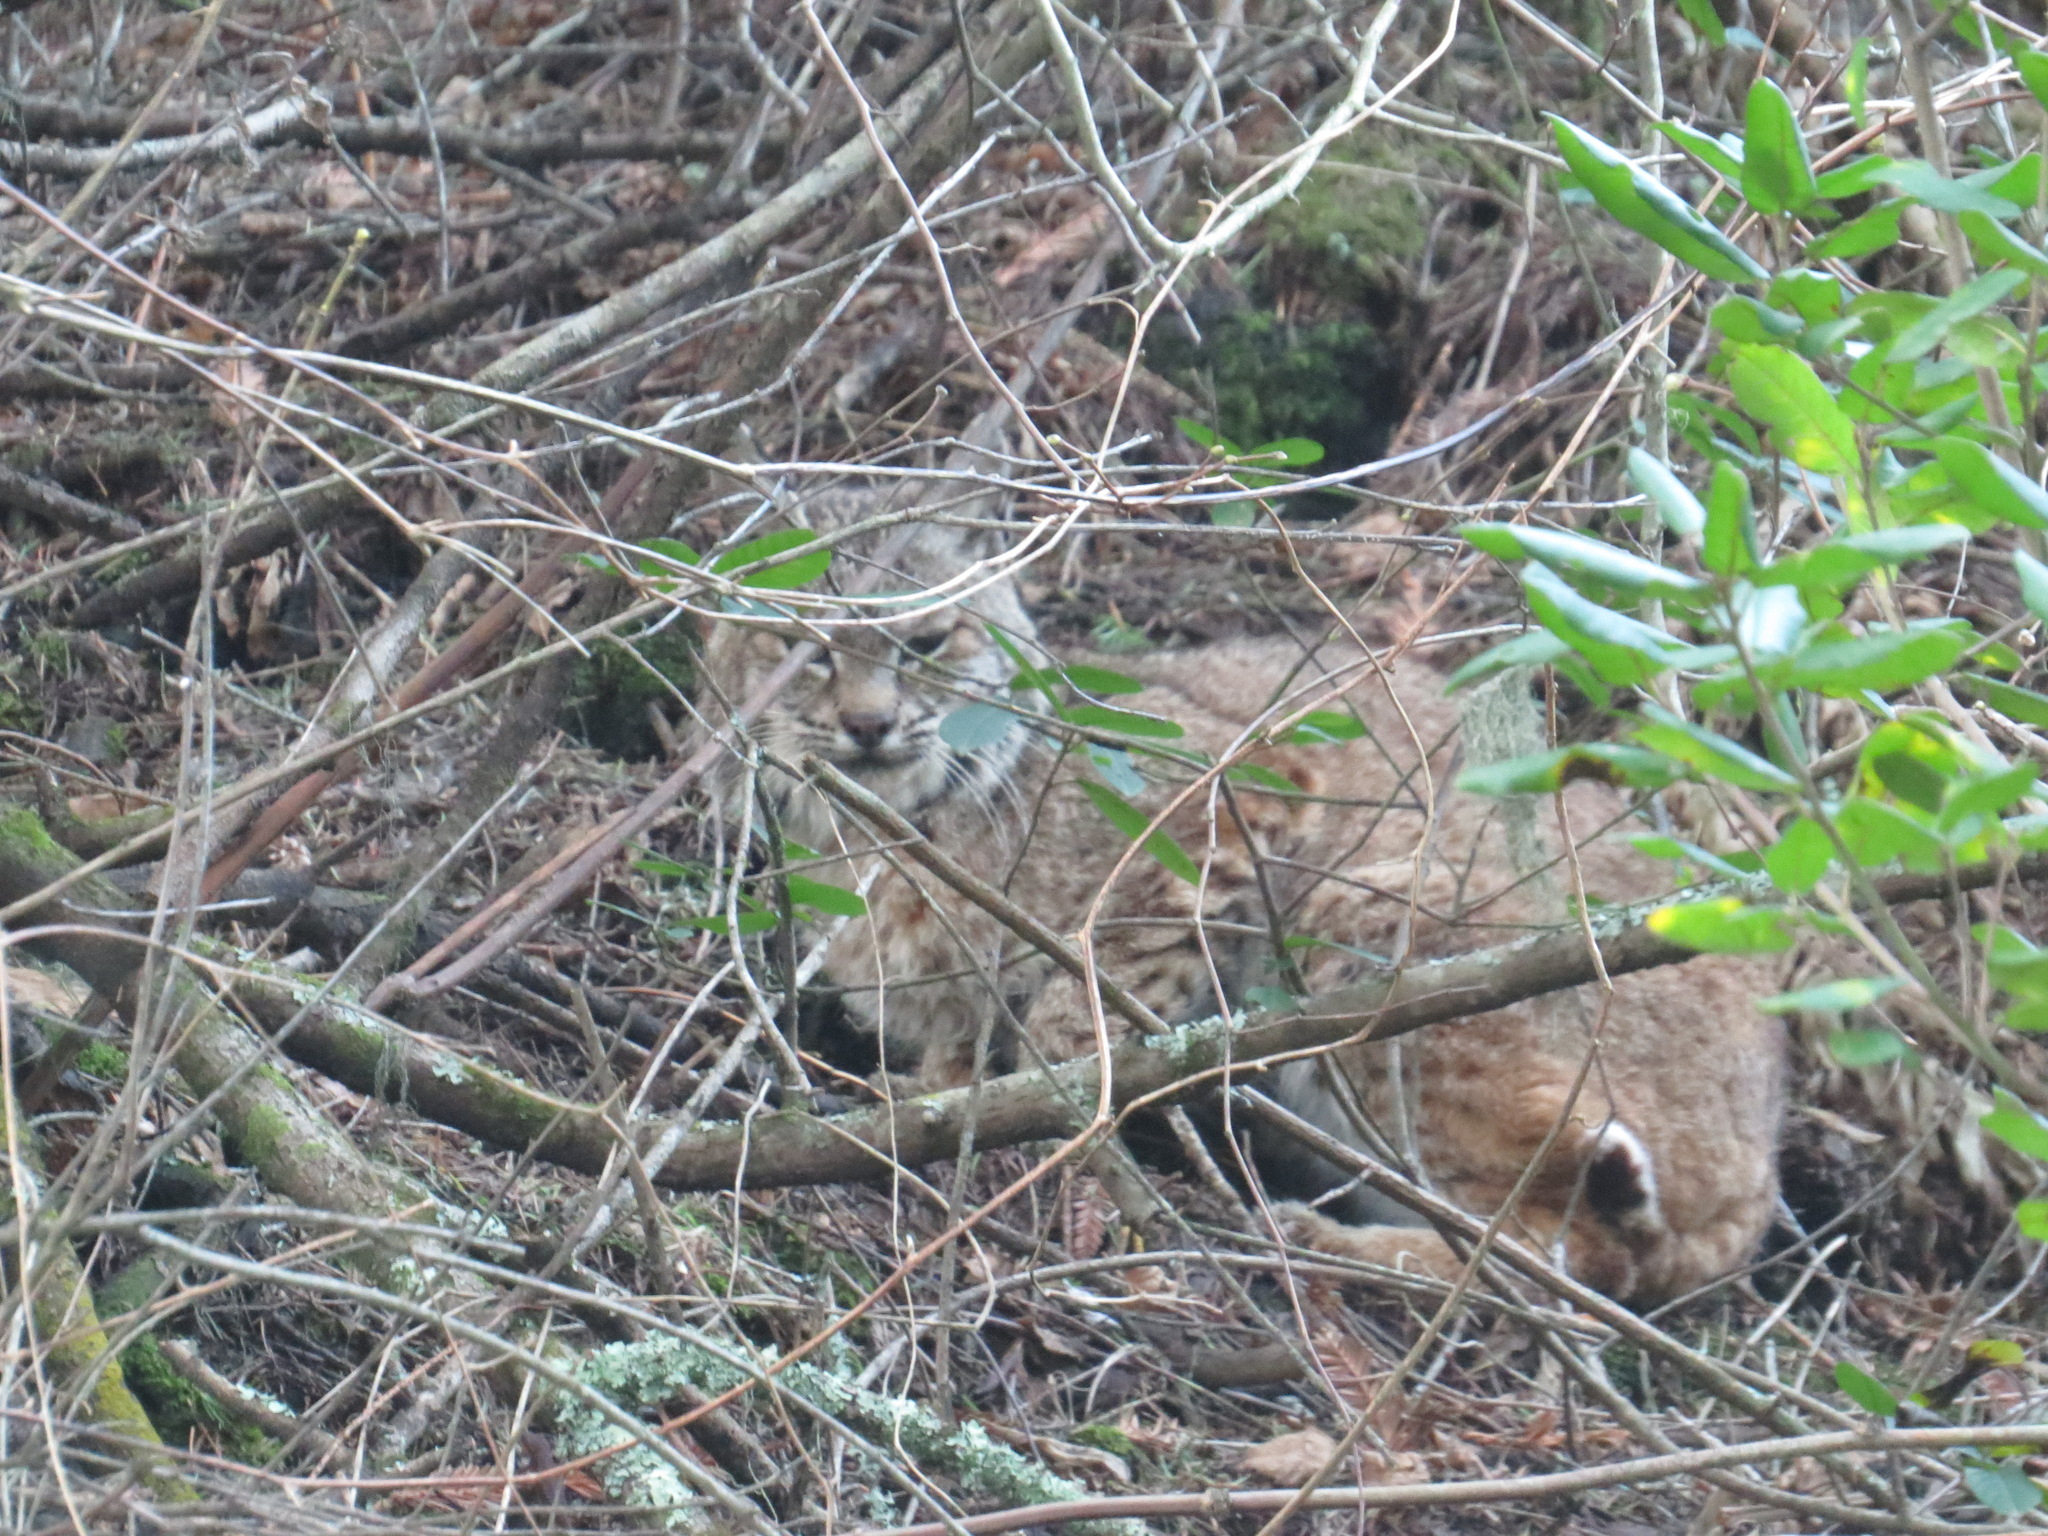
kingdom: Animalia
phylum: Chordata
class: Mammalia
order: Carnivora
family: Felidae
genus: Lynx
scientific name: Lynx rufus
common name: Bobcat
